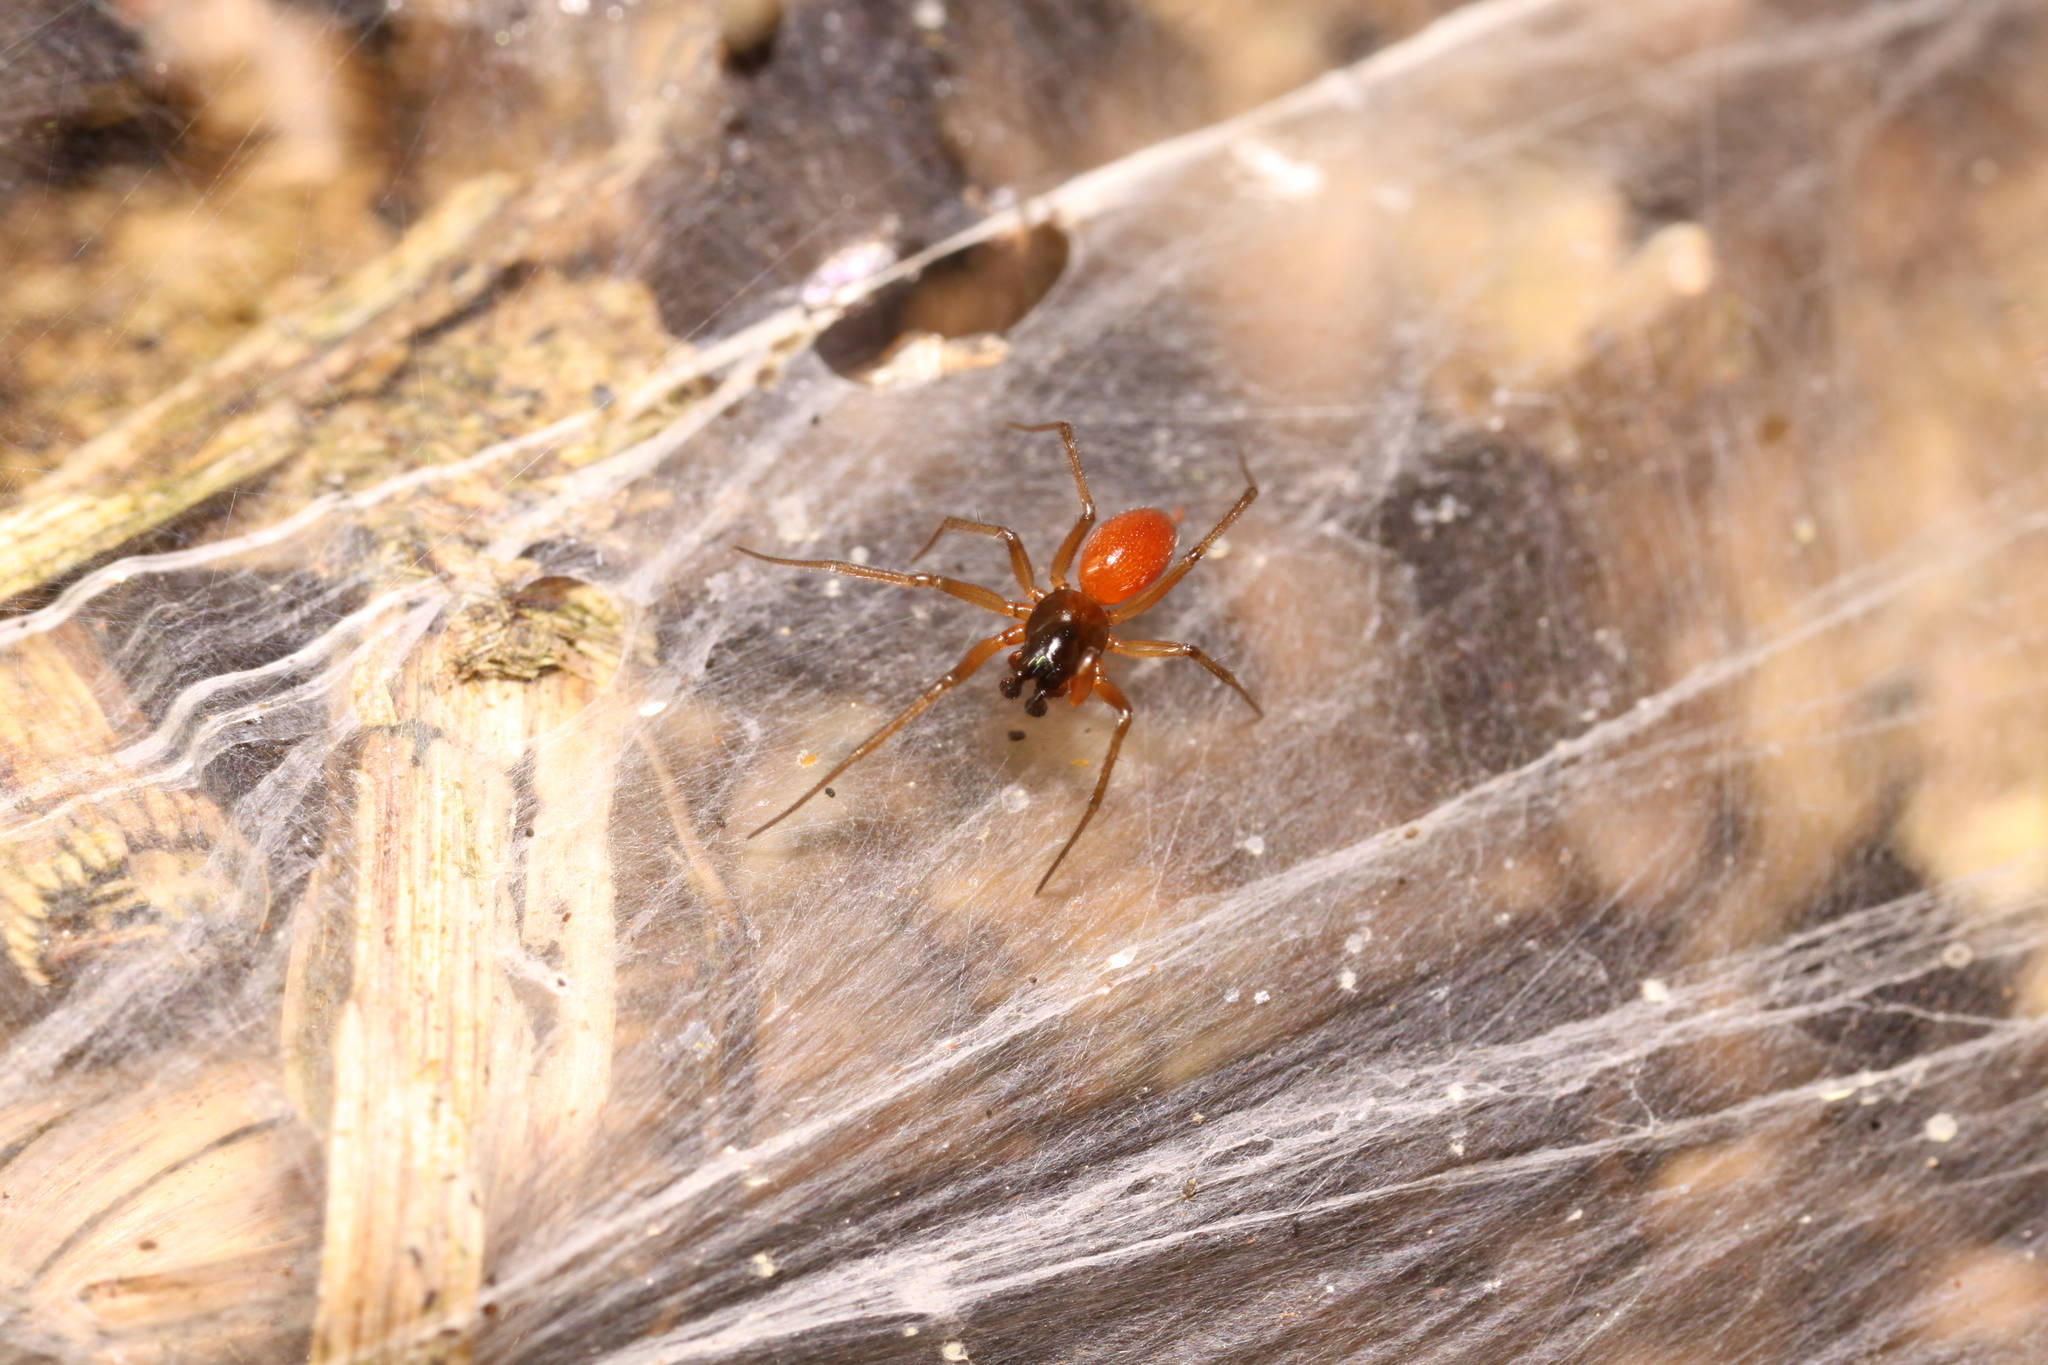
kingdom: Animalia
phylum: Arthropoda
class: Arachnida
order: Araneae
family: Linyphiidae
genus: Ostearius
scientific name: Ostearius melanopygius
